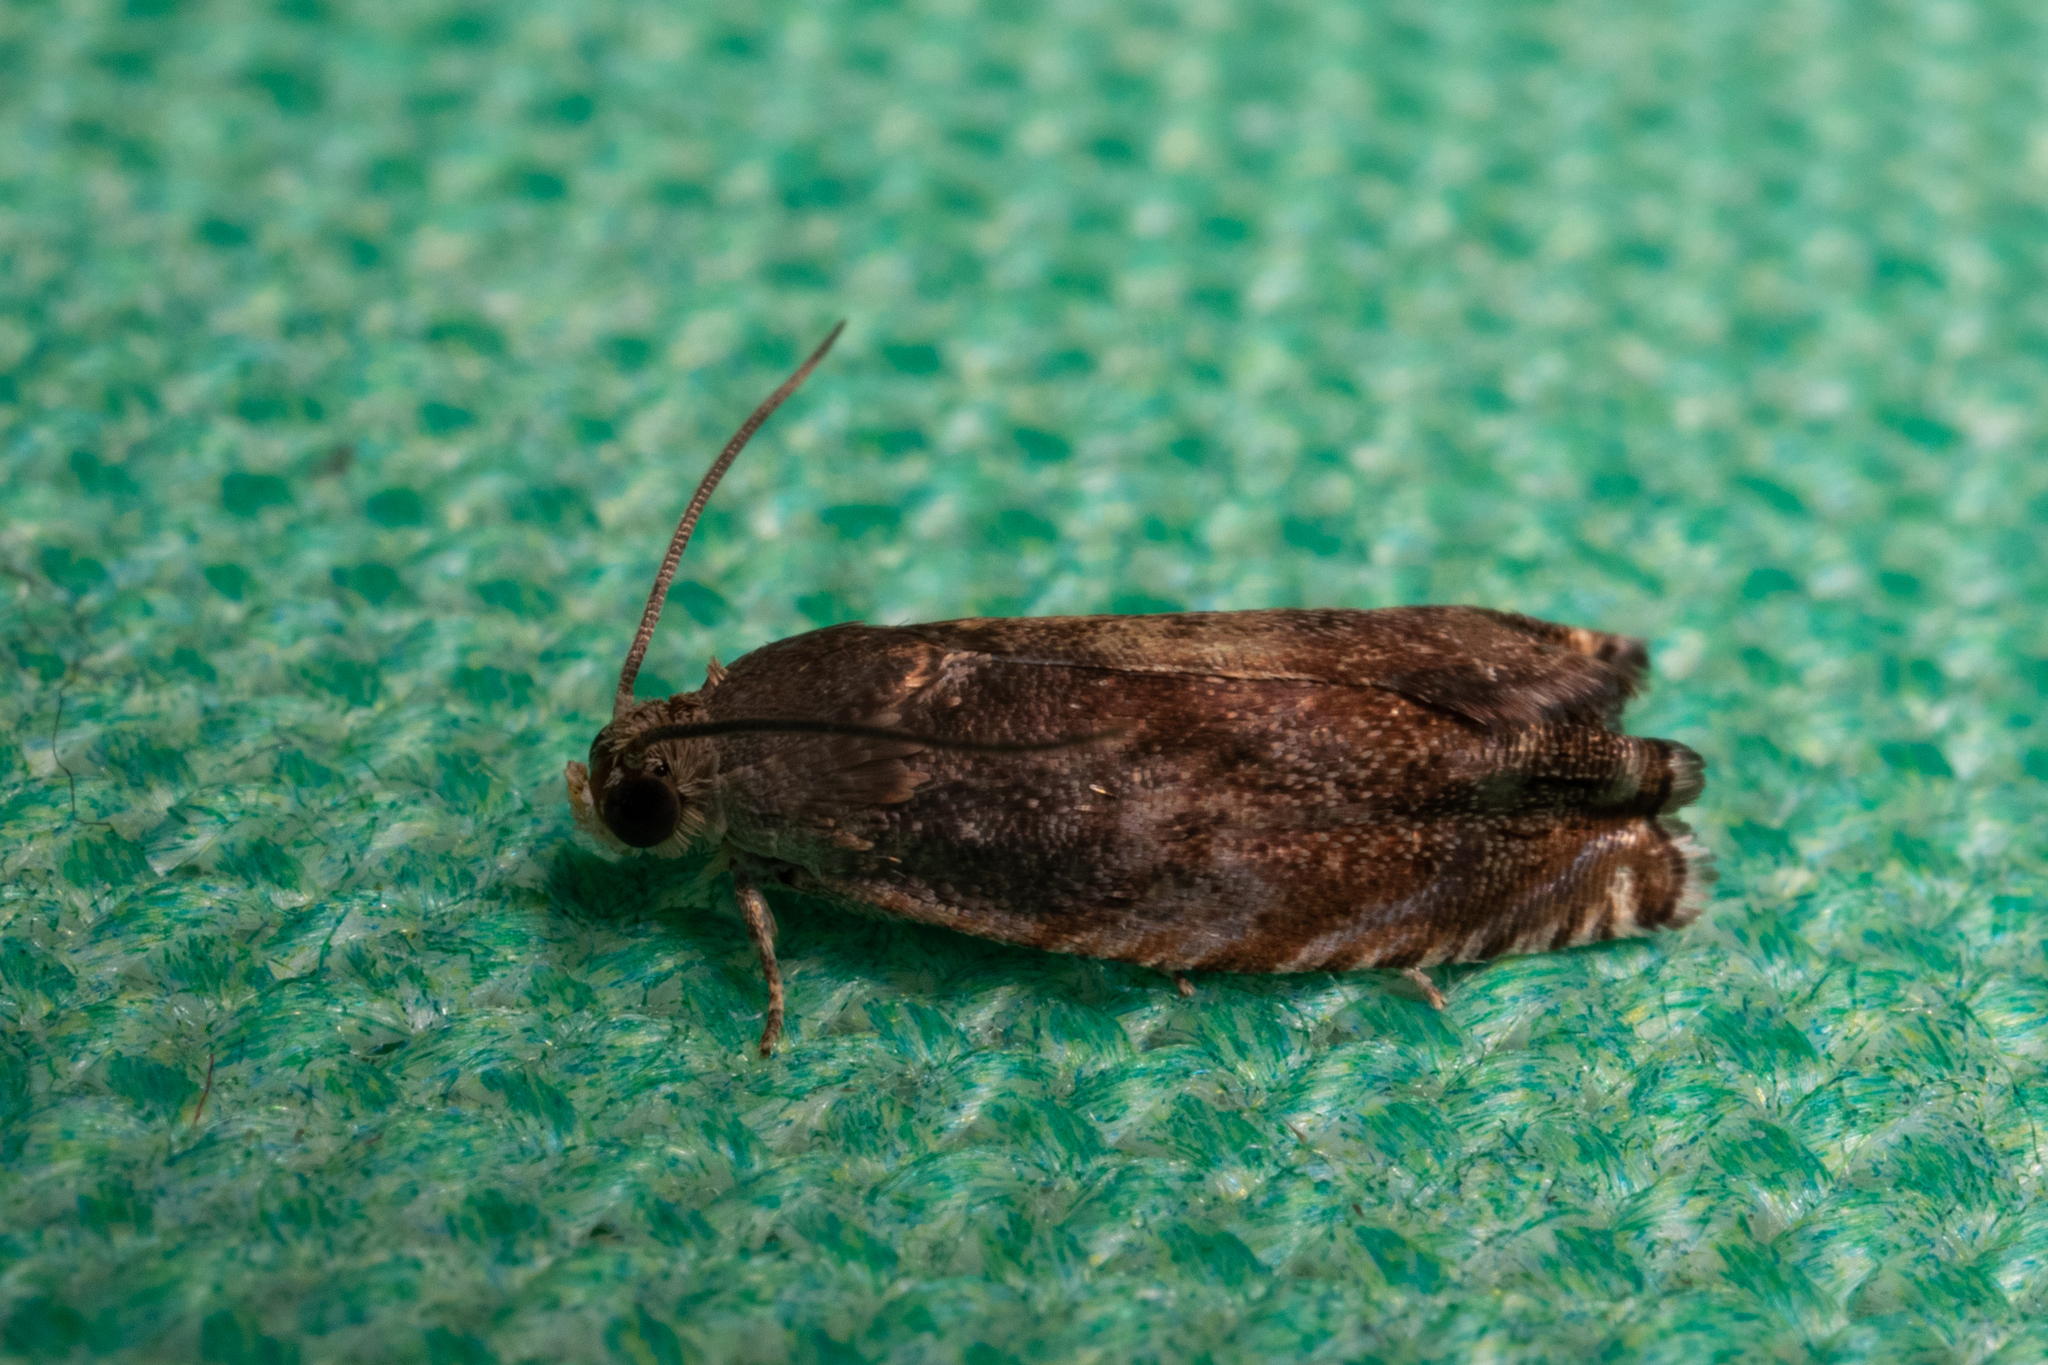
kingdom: Animalia
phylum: Arthropoda
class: Insecta
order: Lepidoptera
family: Tortricidae
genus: Cydia
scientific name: Cydia caryana
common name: Hickory shuckworm moth
